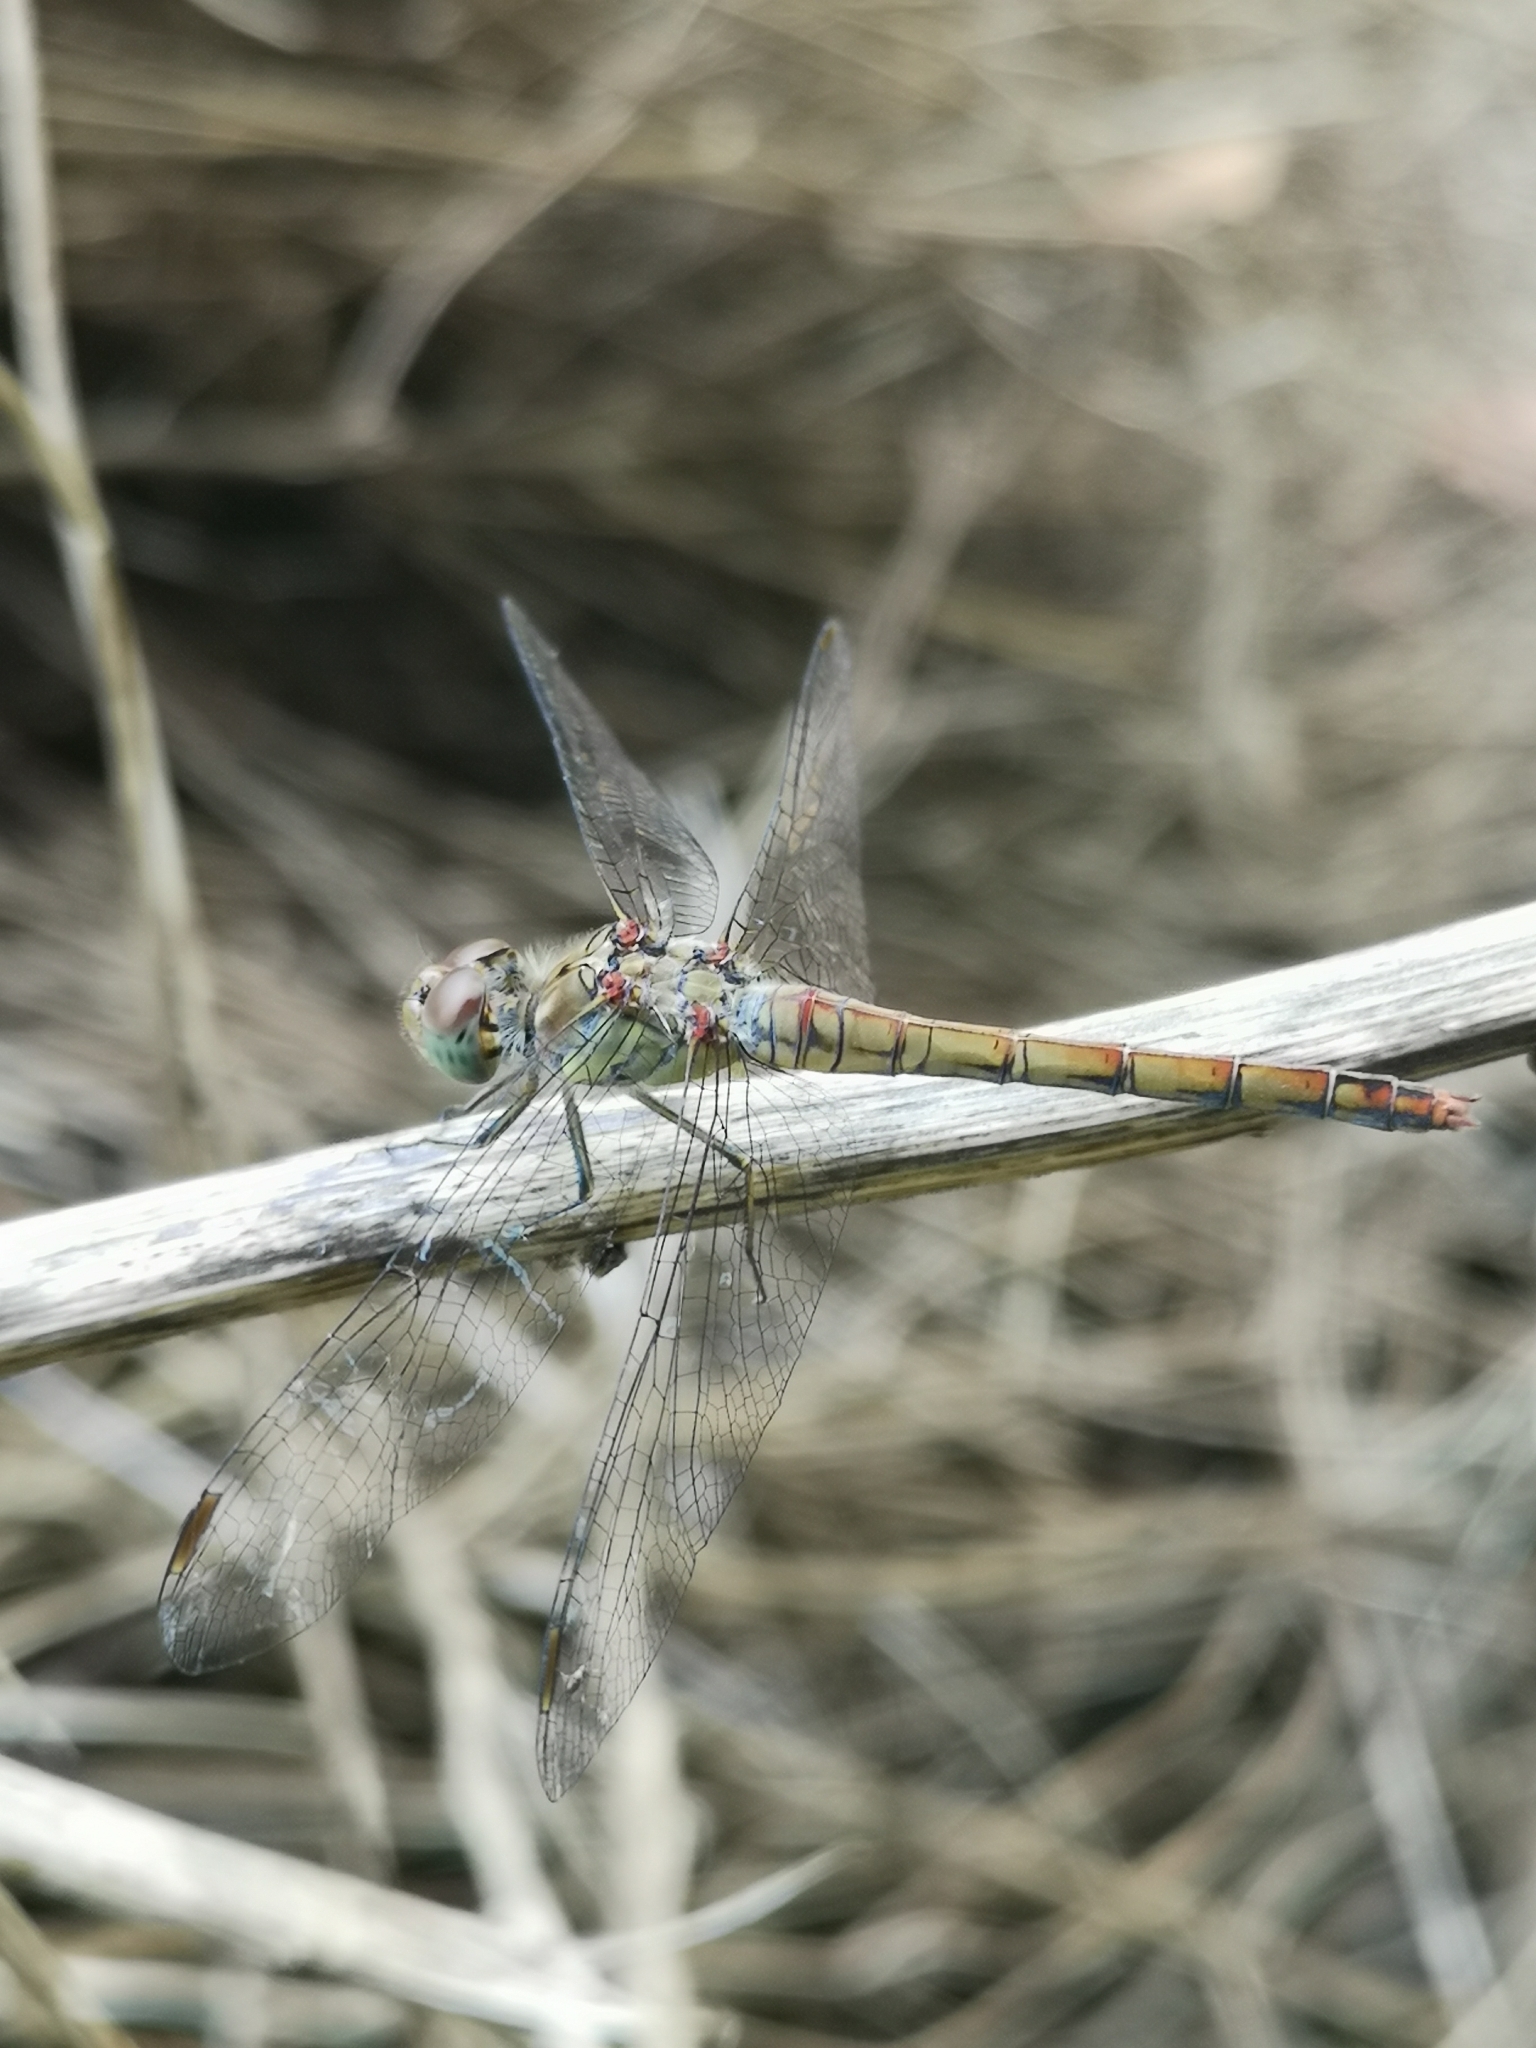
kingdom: Animalia
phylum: Arthropoda
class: Insecta
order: Odonata
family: Libellulidae
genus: Sympetrum
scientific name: Sympetrum striolatum
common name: Common darter
